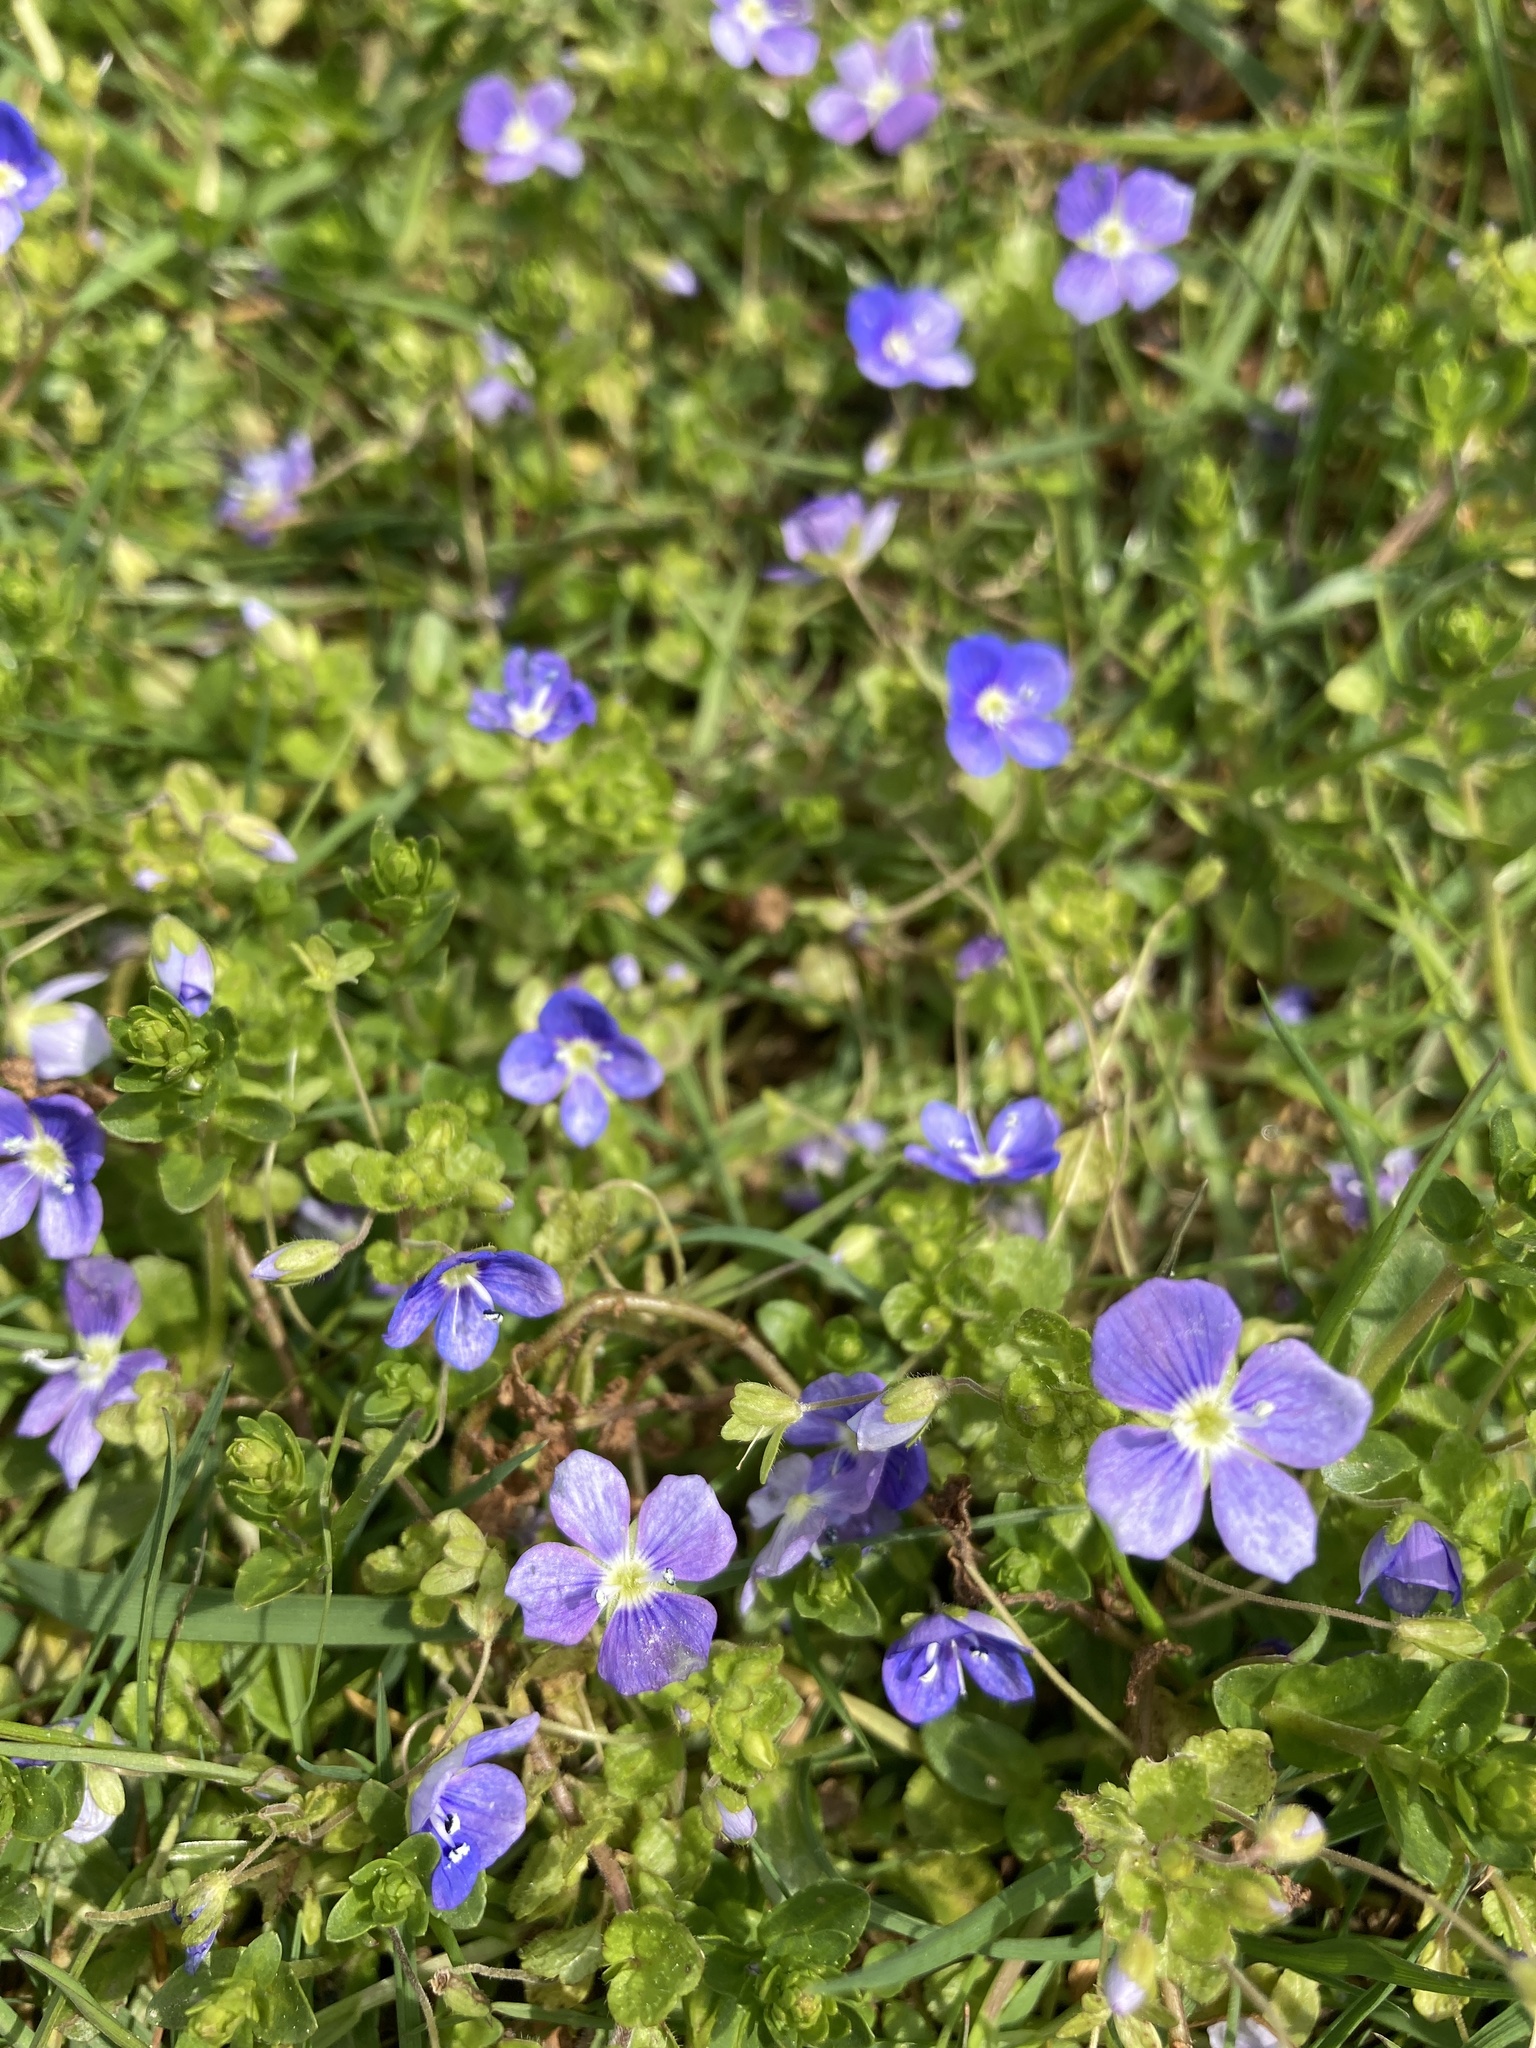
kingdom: Plantae
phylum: Tracheophyta
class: Magnoliopsida
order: Lamiales
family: Plantaginaceae
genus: Veronica
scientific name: Veronica filiformis
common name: Slender speedwell
